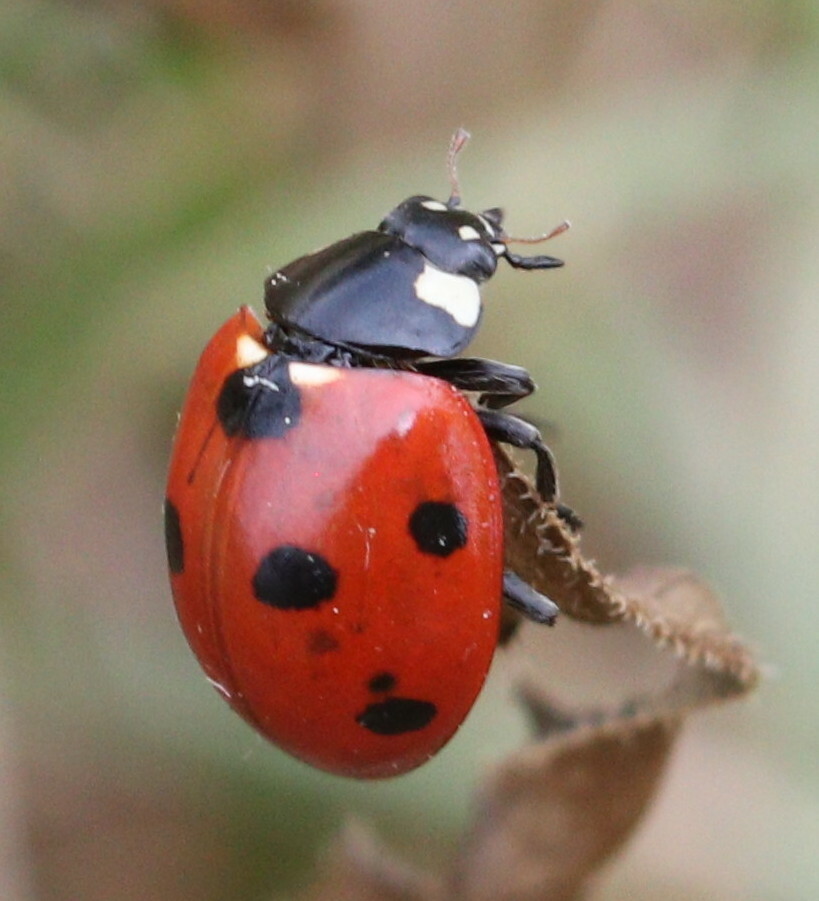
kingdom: Animalia
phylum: Arthropoda
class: Insecta
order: Coleoptera
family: Coccinellidae
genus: Coccinella
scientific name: Coccinella septempunctata
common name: Sevenspotted lady beetle
